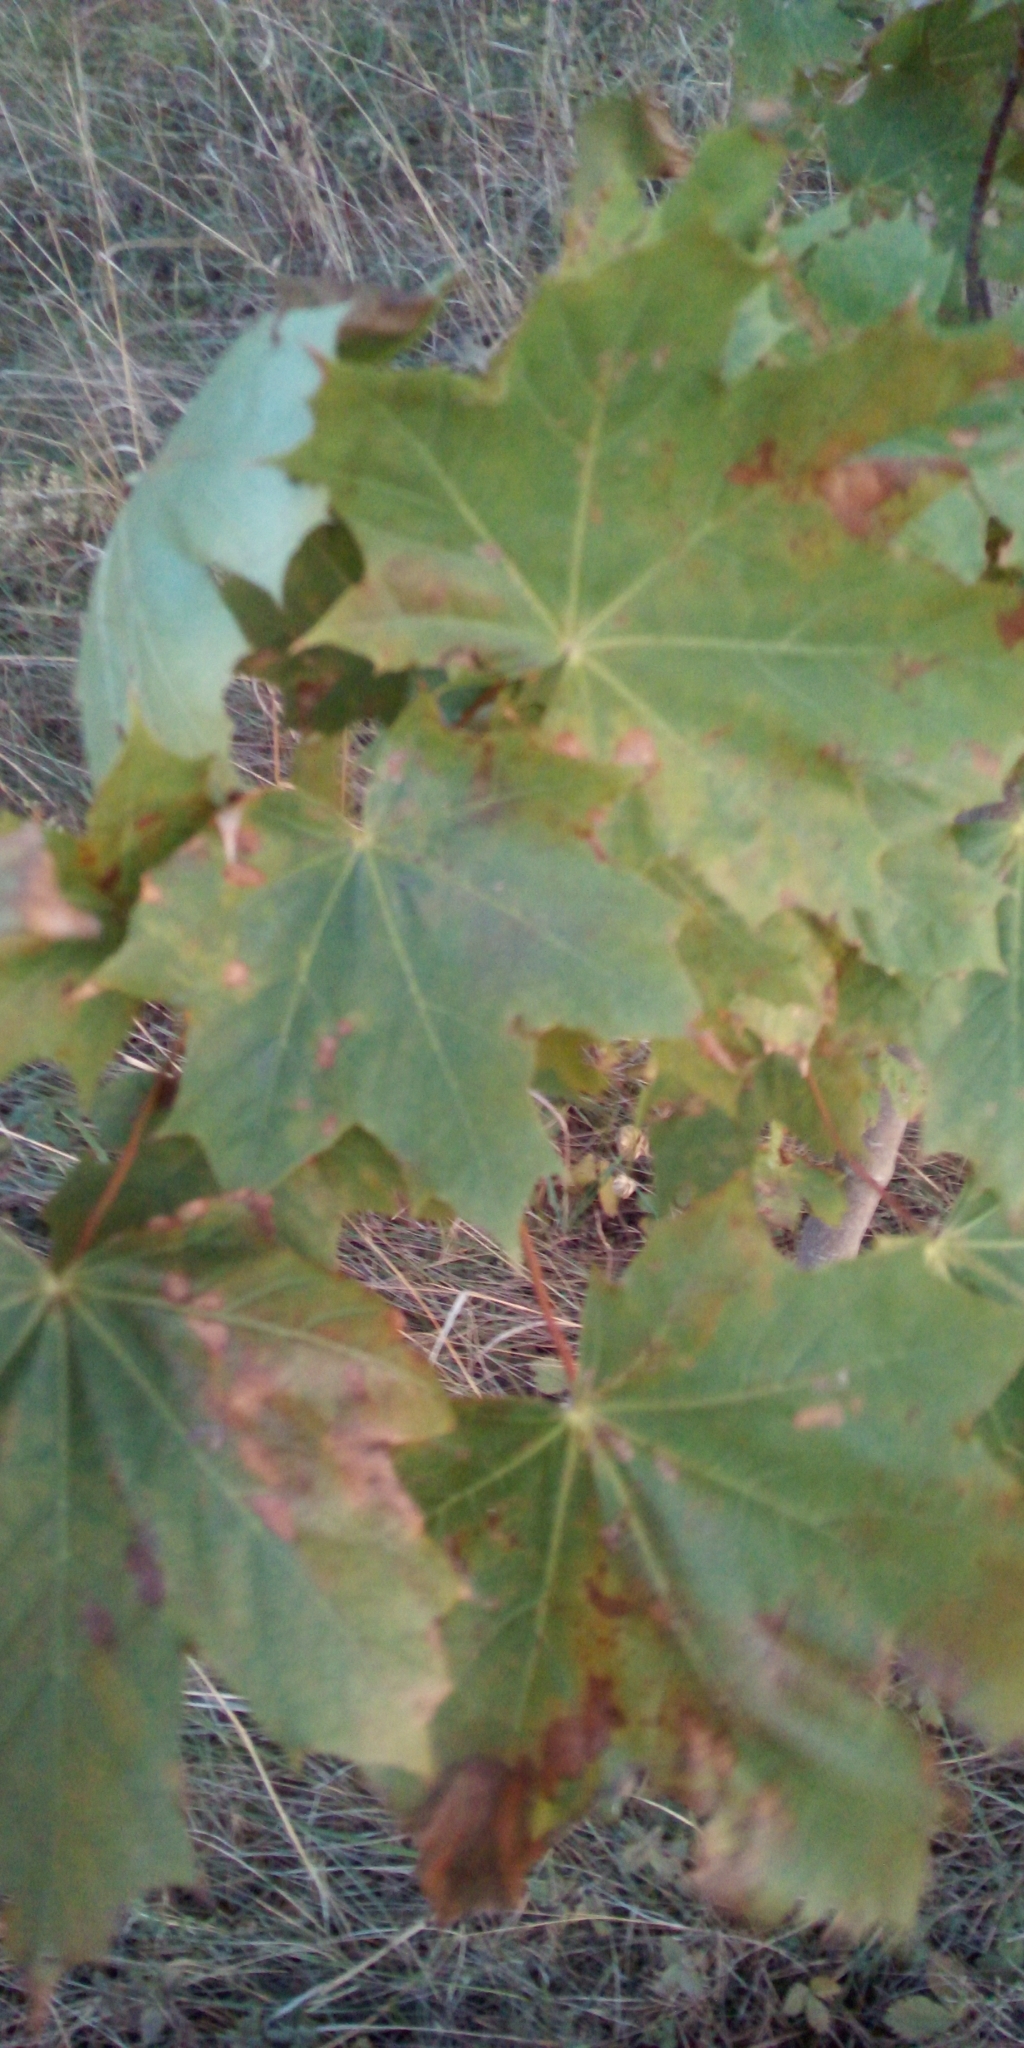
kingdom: Plantae
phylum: Tracheophyta
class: Magnoliopsida
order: Sapindales
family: Sapindaceae
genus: Acer
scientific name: Acer platanoides
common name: Norway maple
